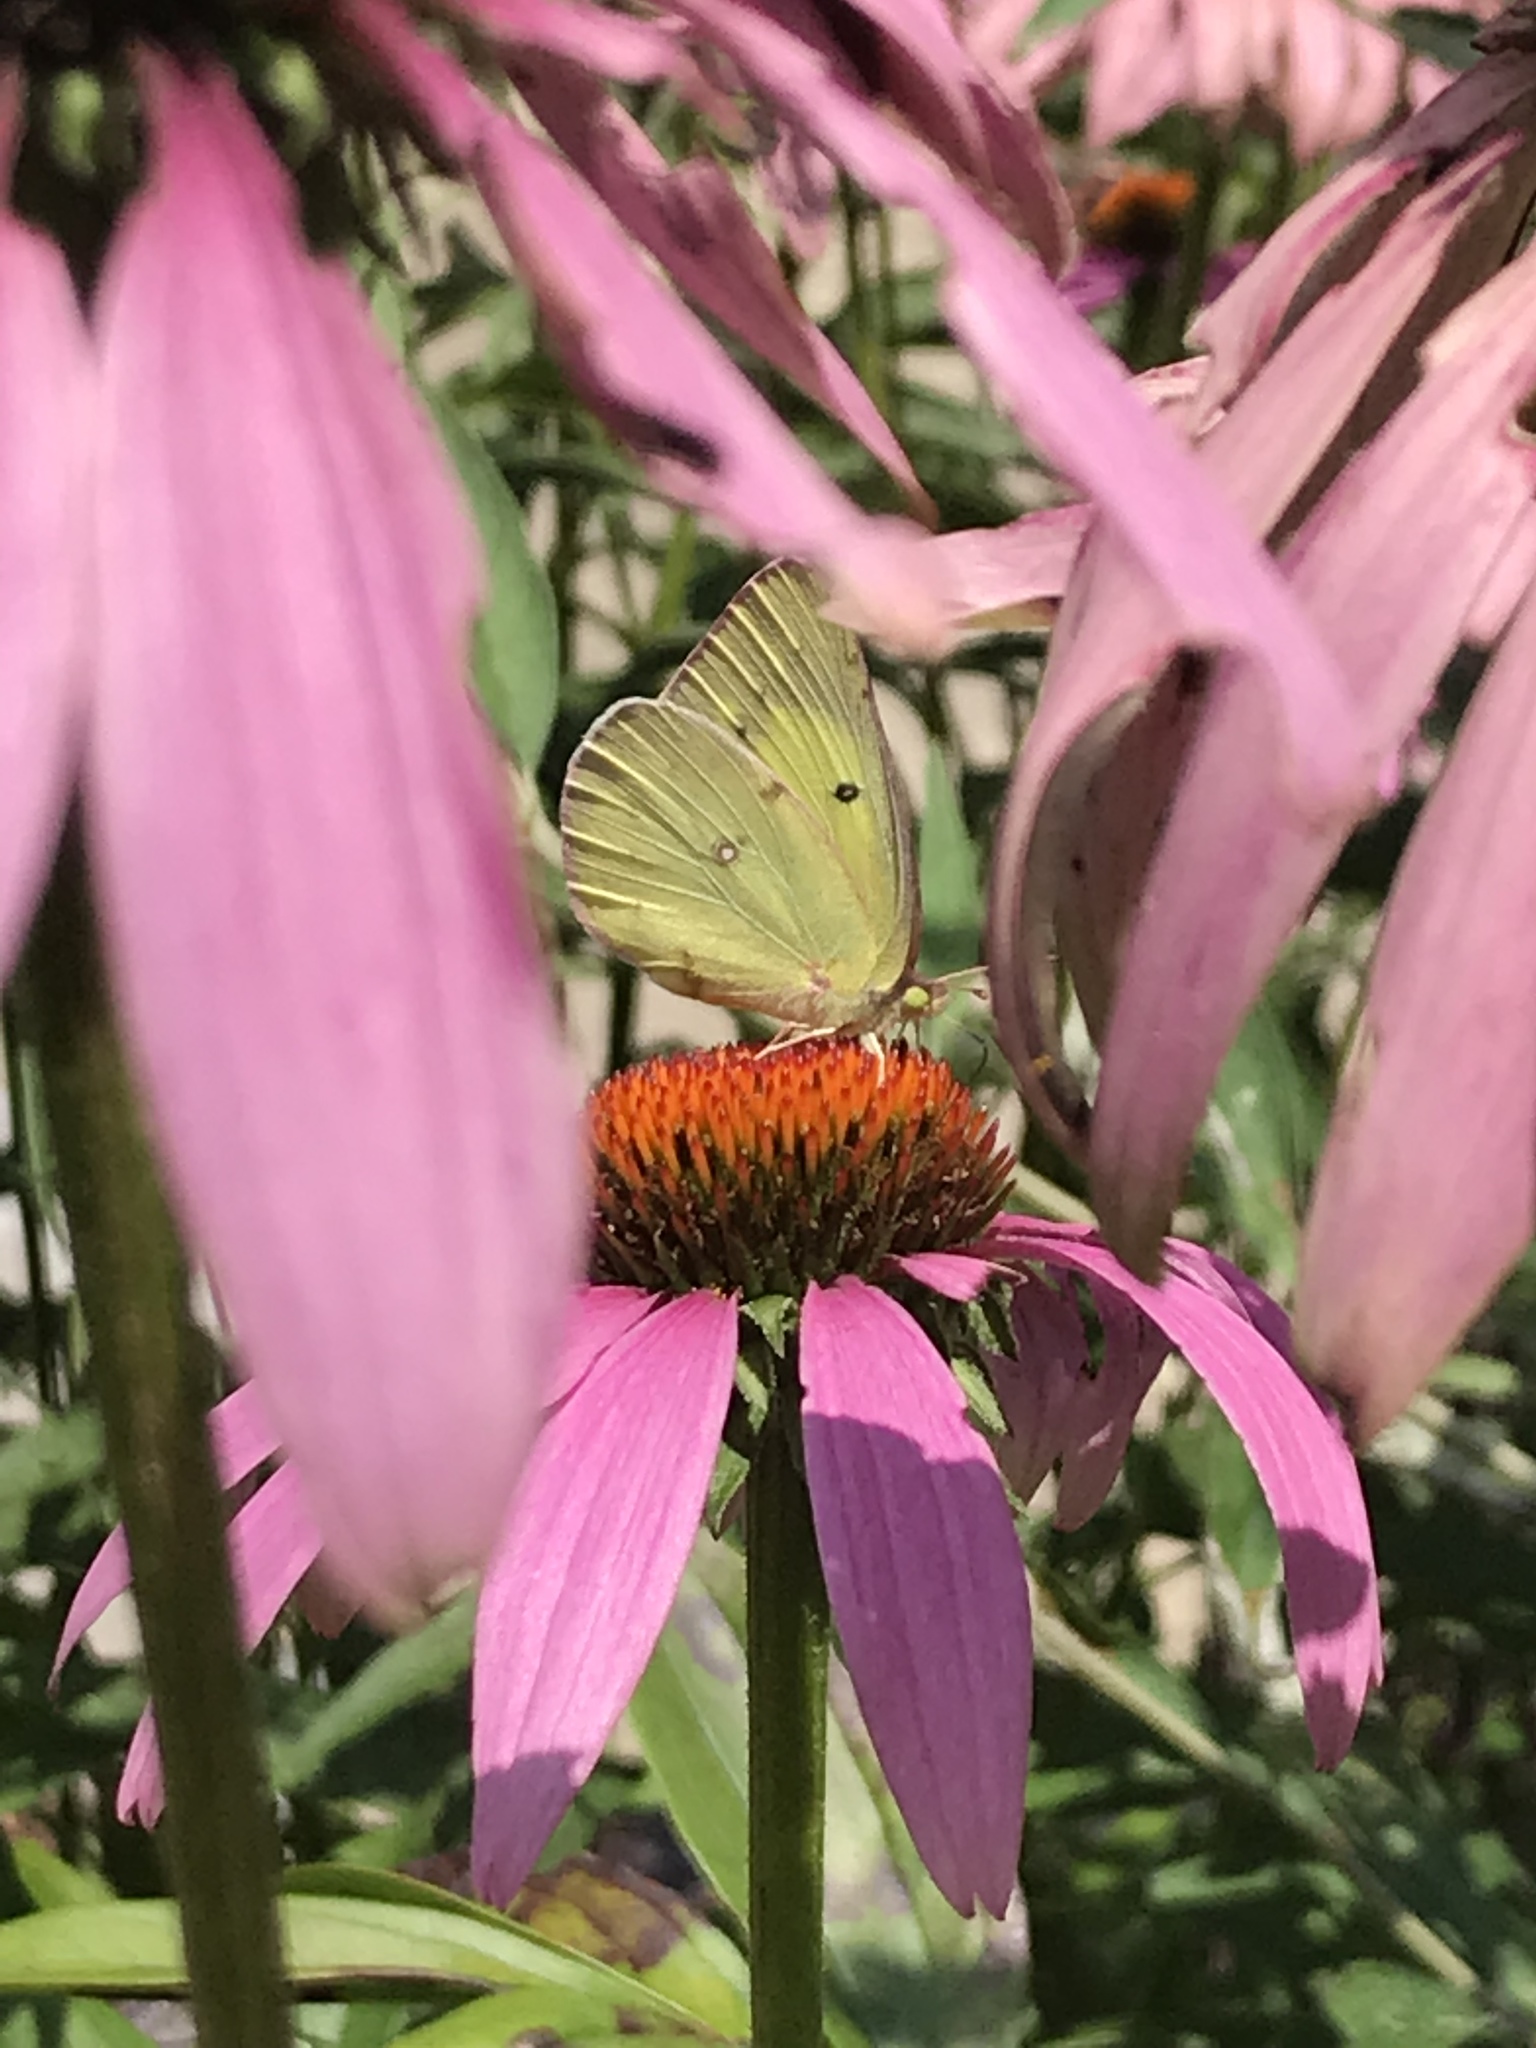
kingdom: Animalia
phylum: Arthropoda
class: Insecta
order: Lepidoptera
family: Pieridae
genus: Colias
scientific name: Colias philodice
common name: Clouded sulphur
